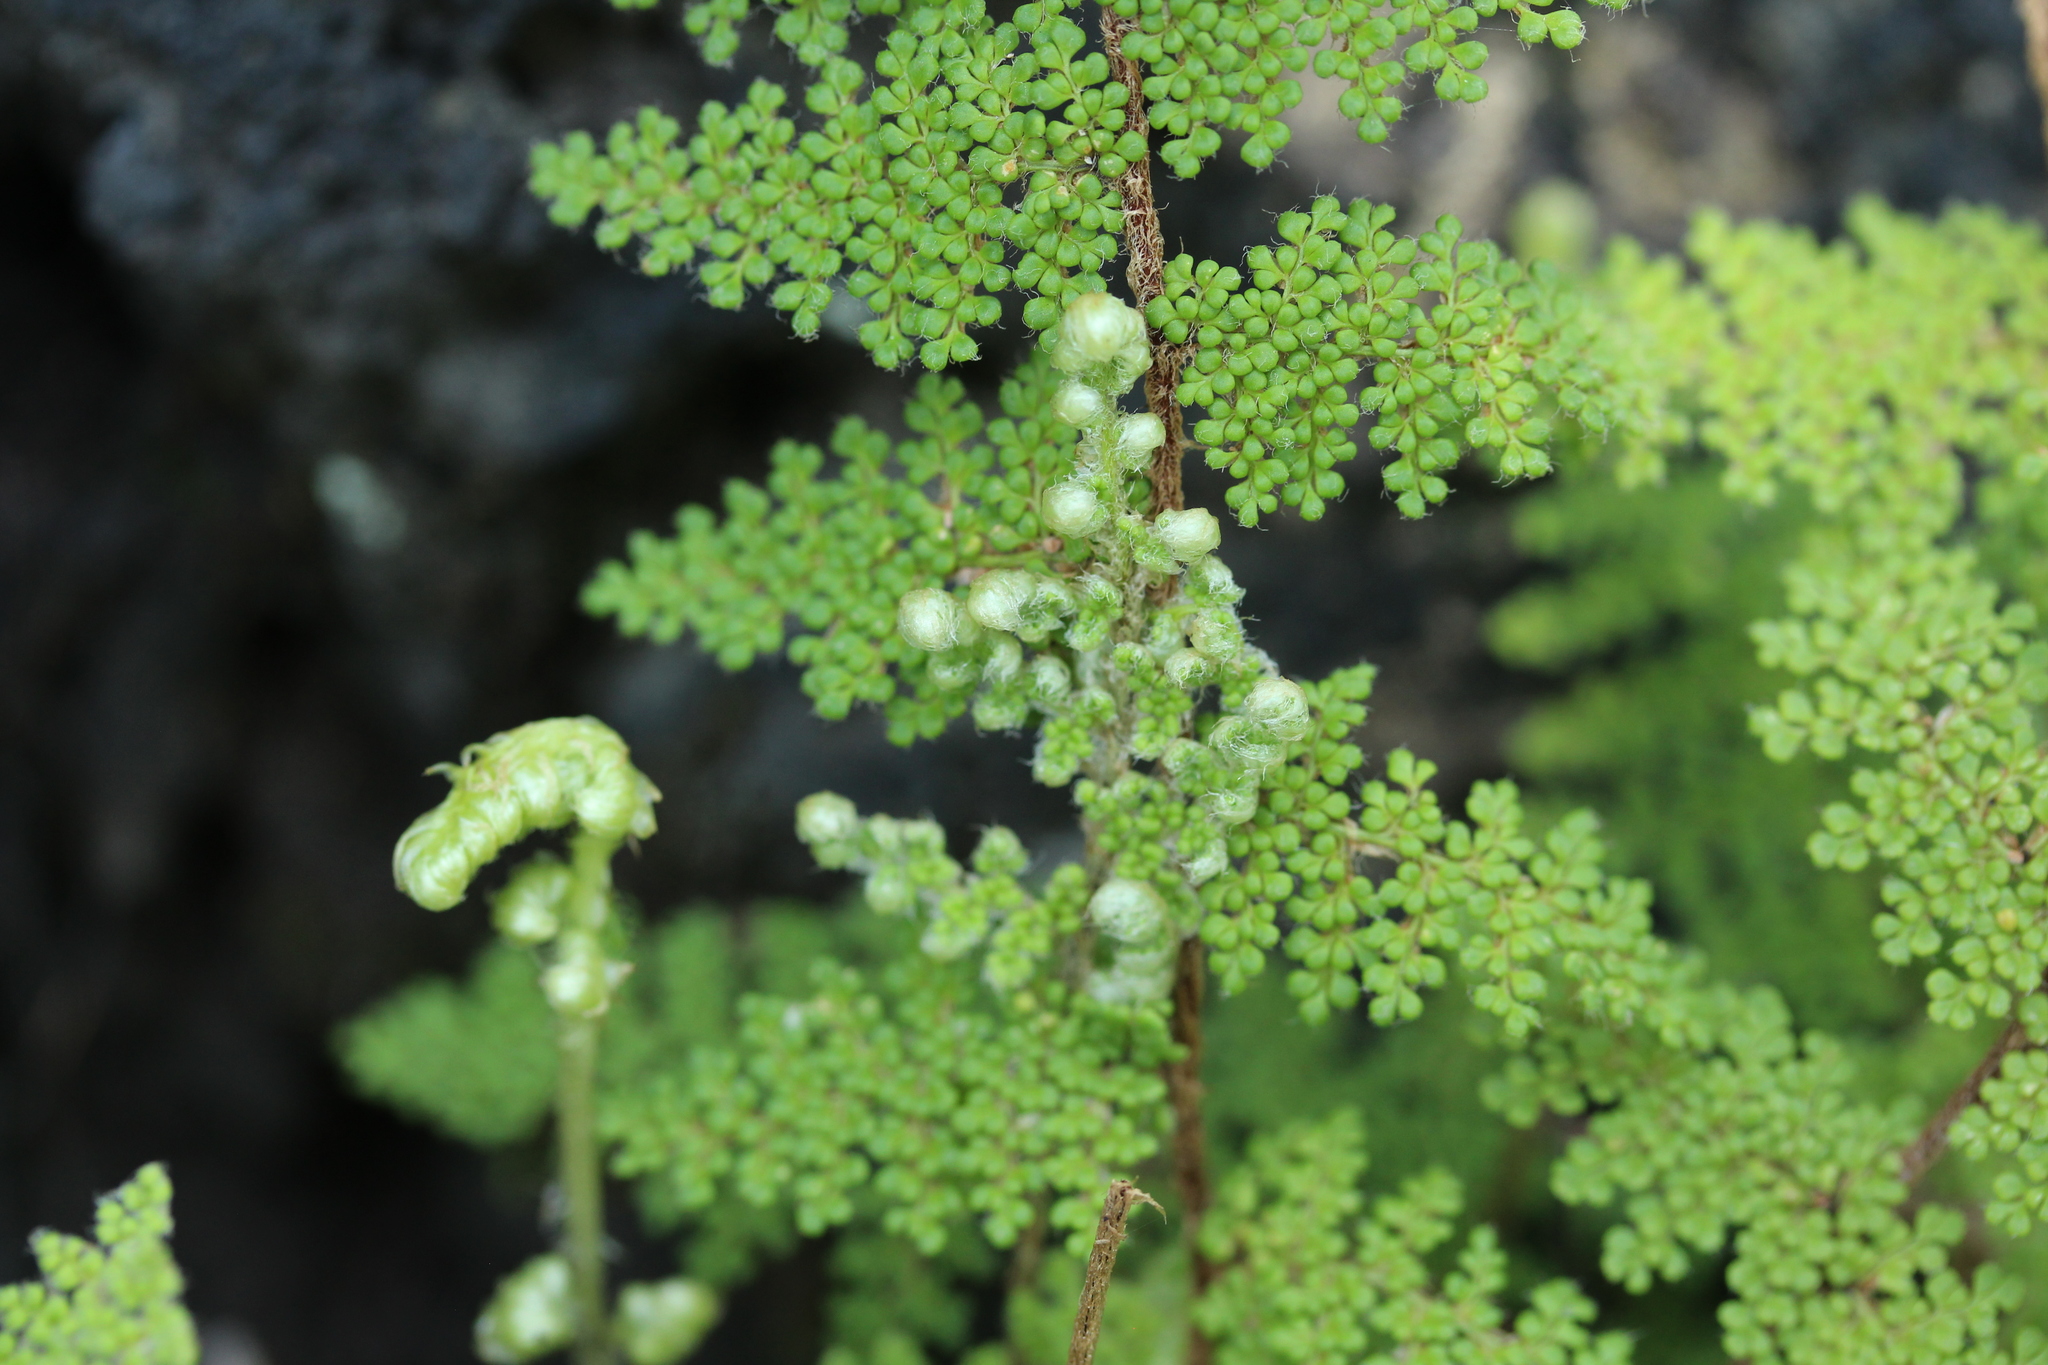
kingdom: Plantae
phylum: Tracheophyta
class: Polypodiopsida
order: Polypodiales
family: Pteridaceae
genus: Myriopteris
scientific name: Myriopteris myriophylla
